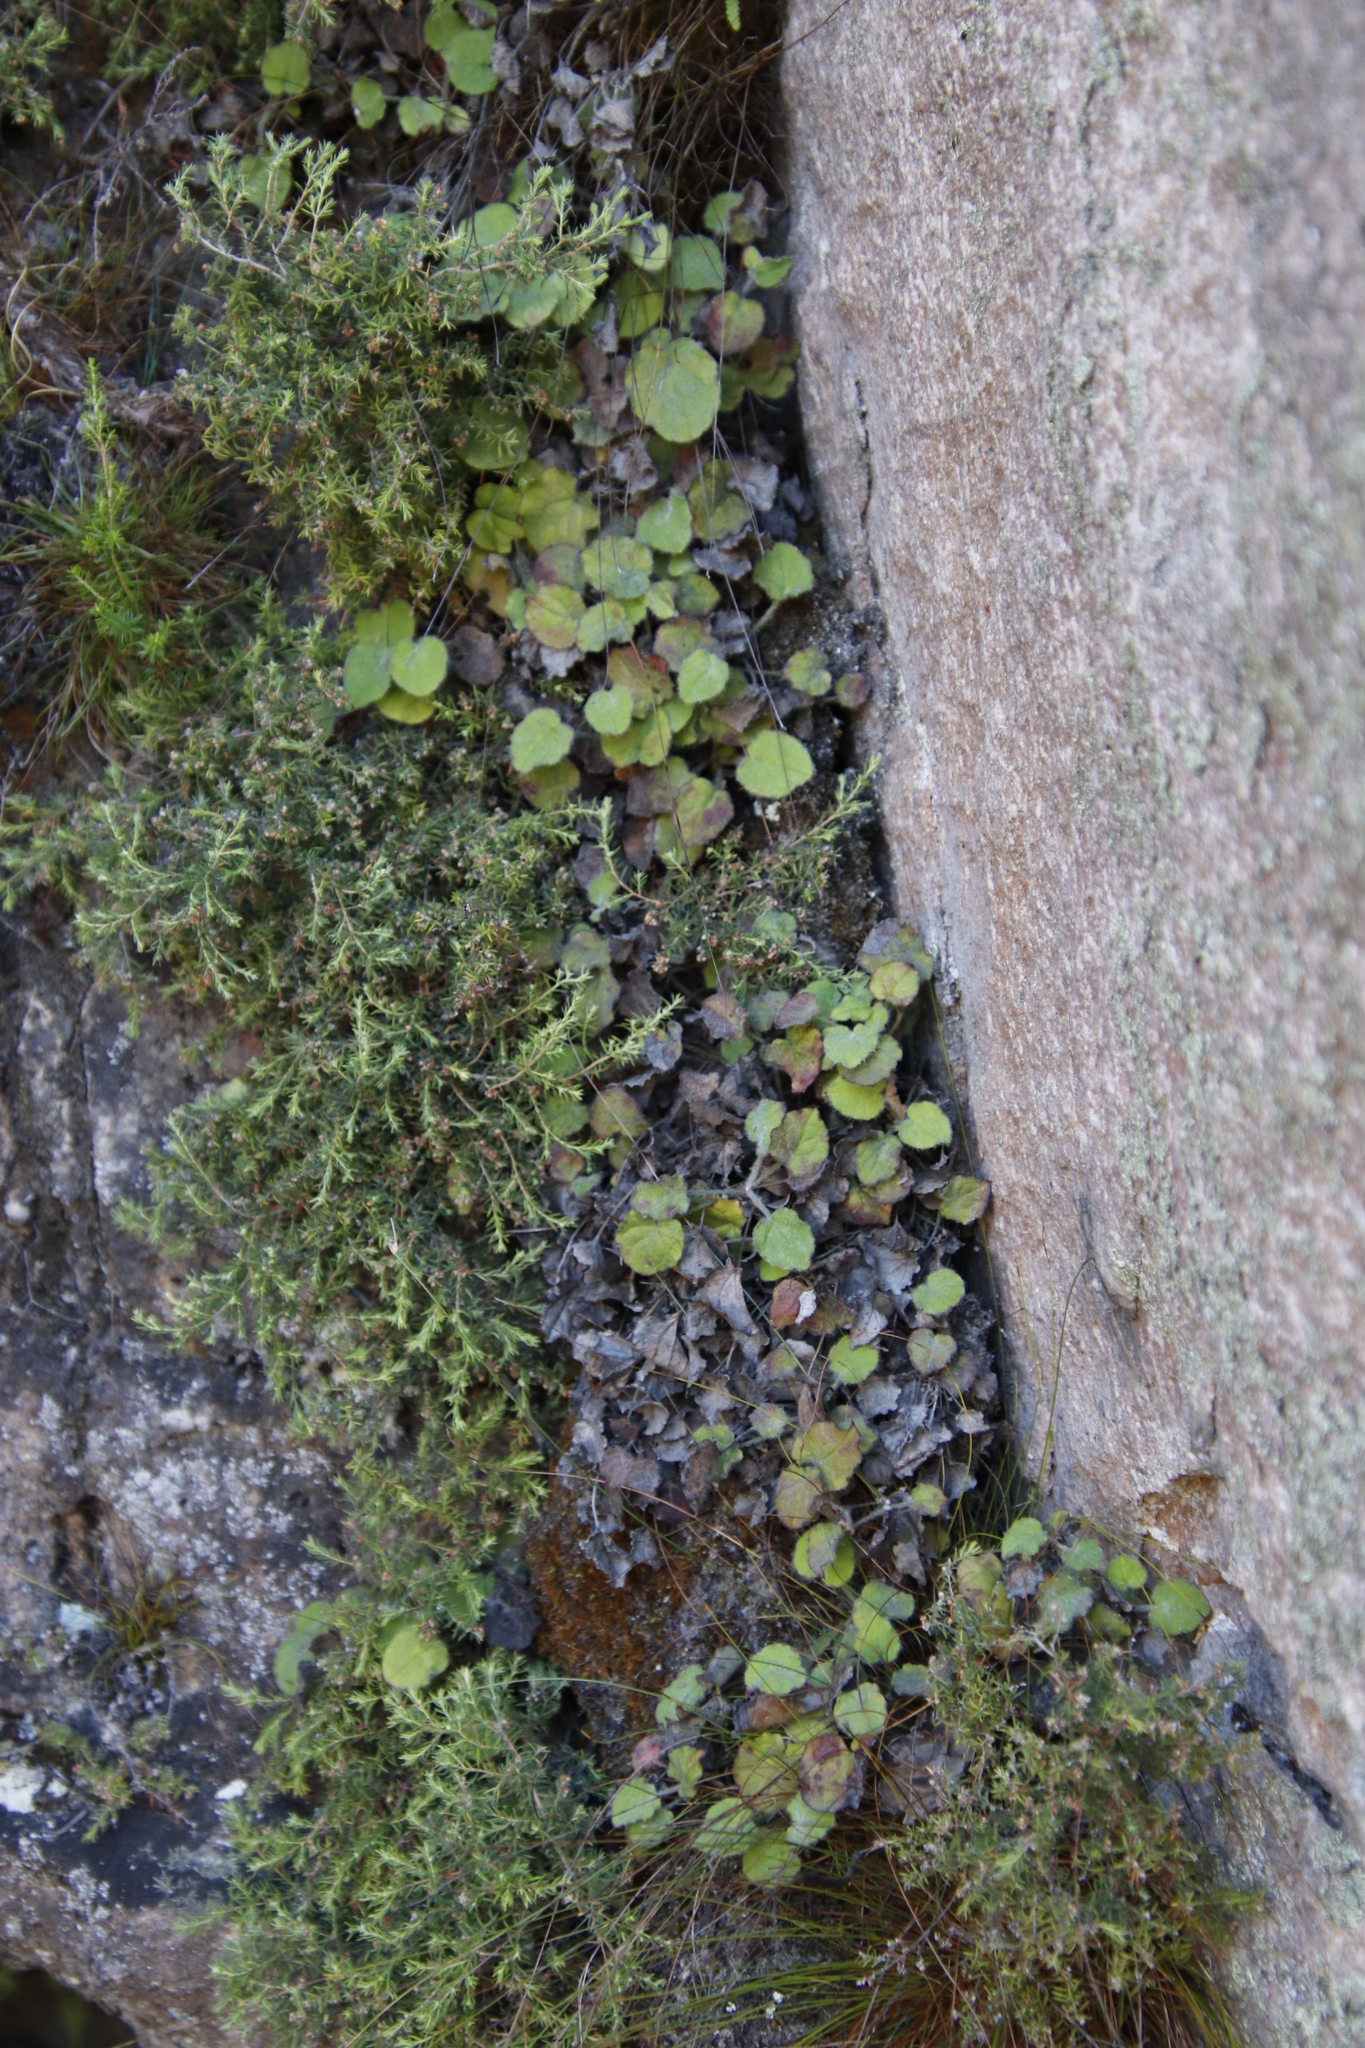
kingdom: Plantae
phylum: Tracheophyta
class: Magnoliopsida
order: Apiales
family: Apiaceae
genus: Centella
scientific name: Centella villosa
